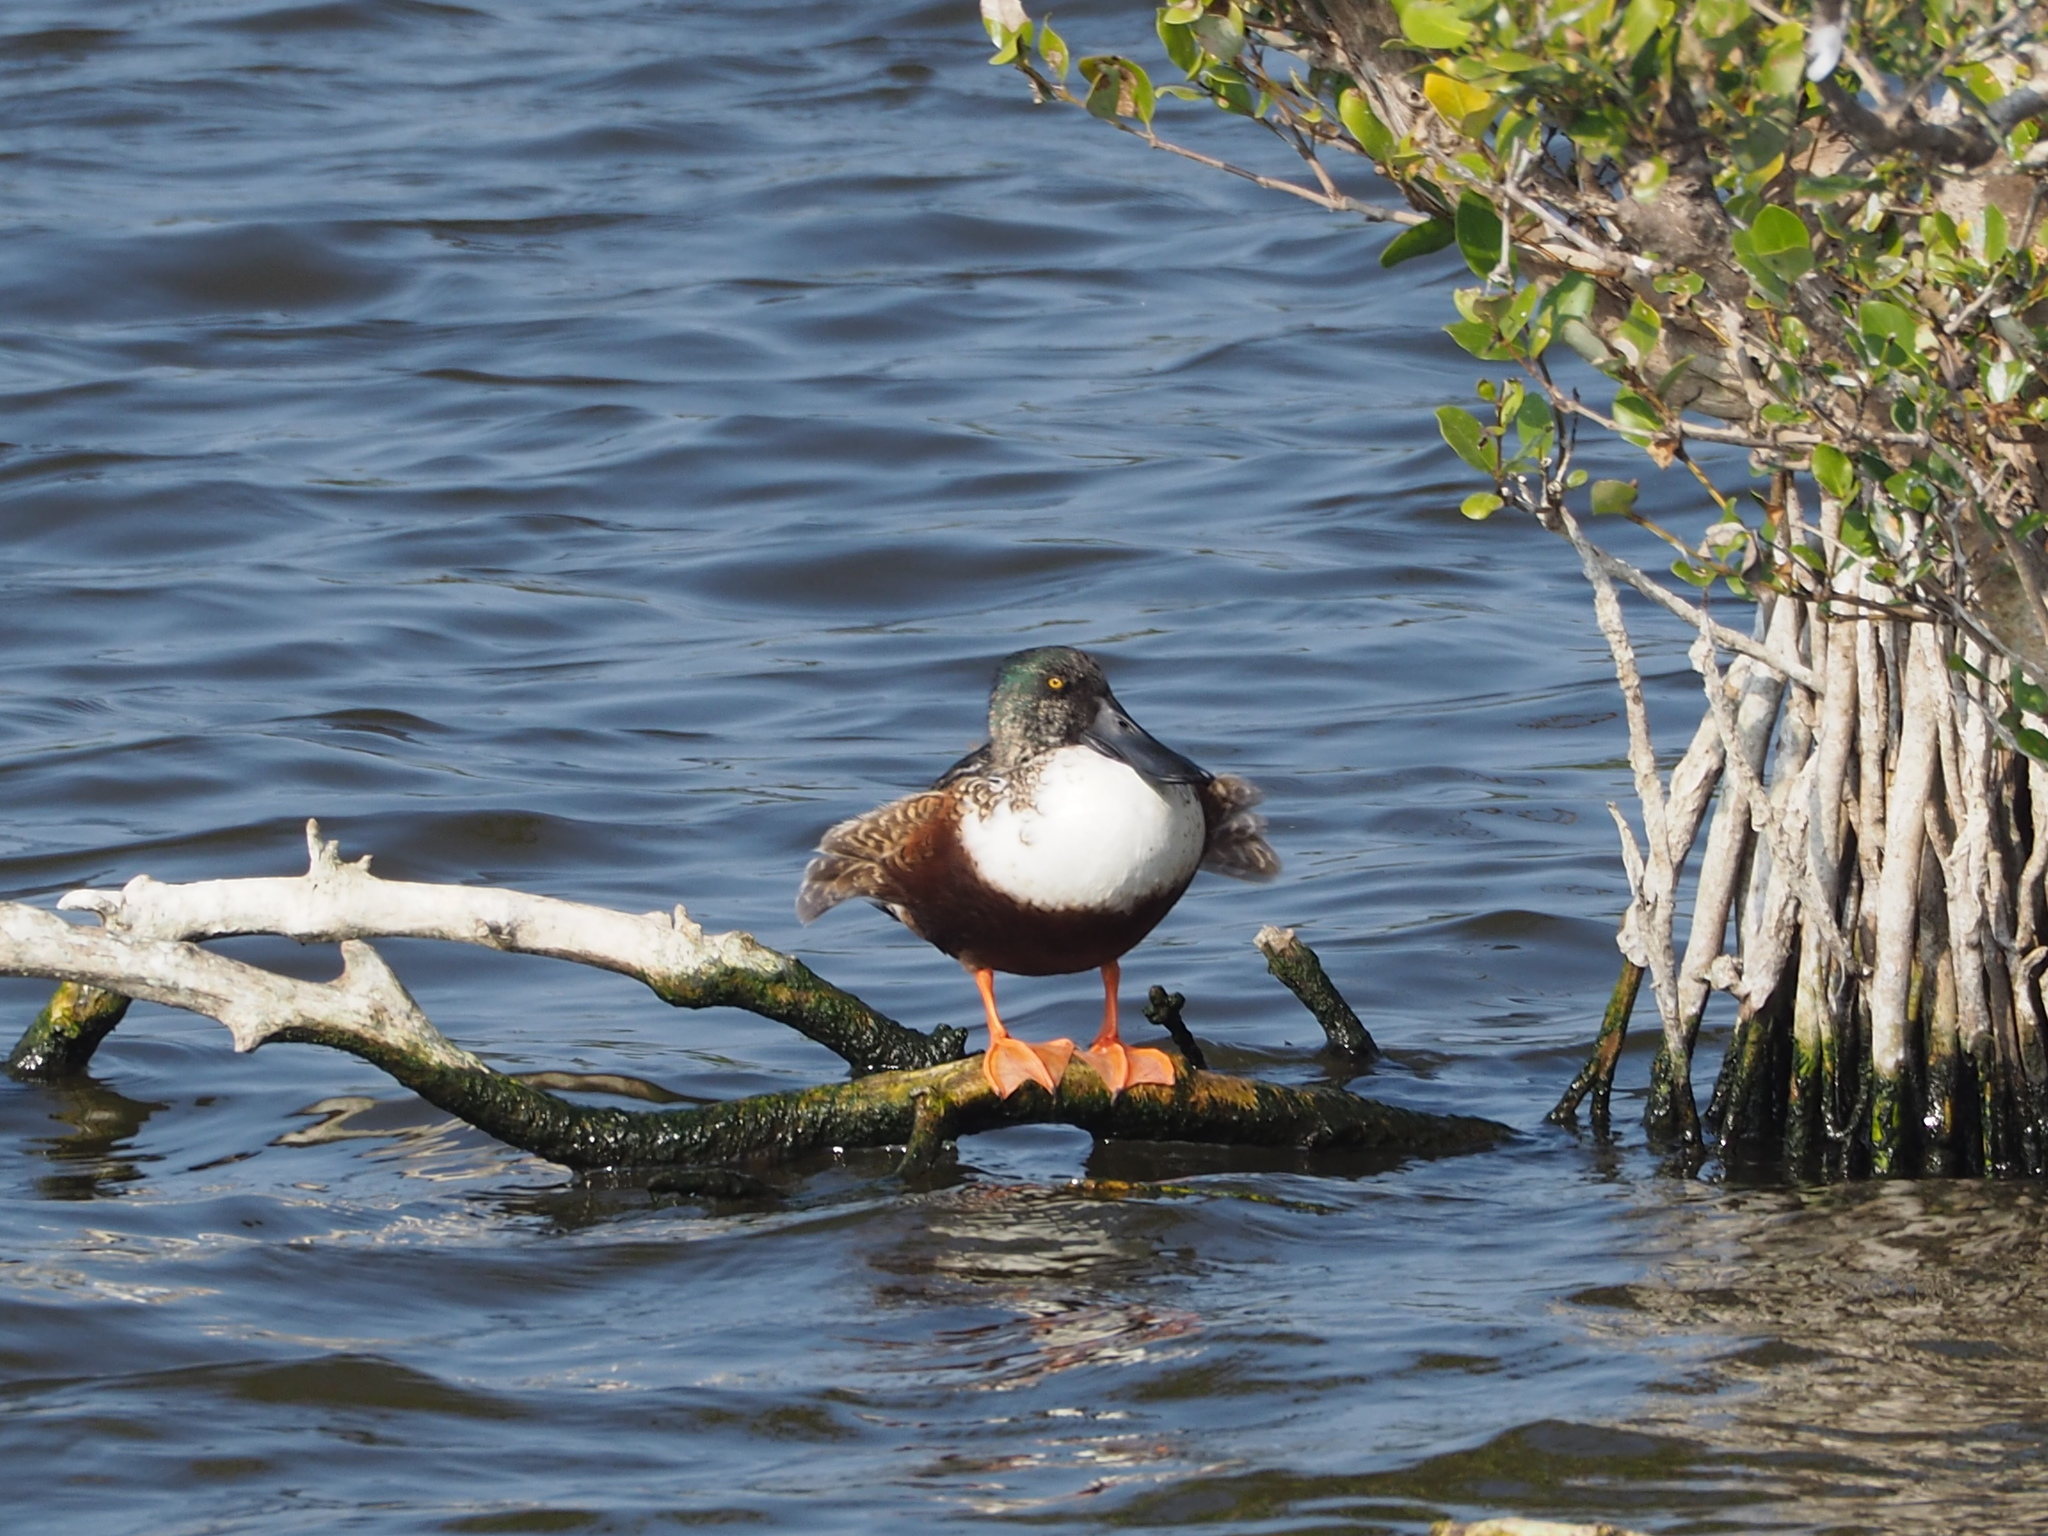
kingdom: Animalia
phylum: Chordata
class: Aves
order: Anseriformes
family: Anatidae
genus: Spatula
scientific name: Spatula clypeata
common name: Northern shoveler
